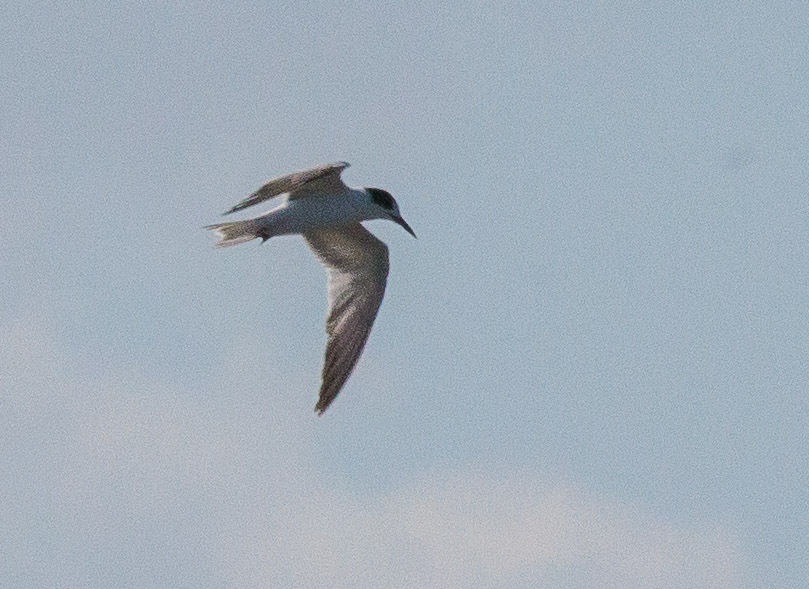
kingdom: Animalia
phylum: Chordata
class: Aves
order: Charadriiformes
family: Laridae
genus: Sterna
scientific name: Sterna hirundo
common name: Common tern
